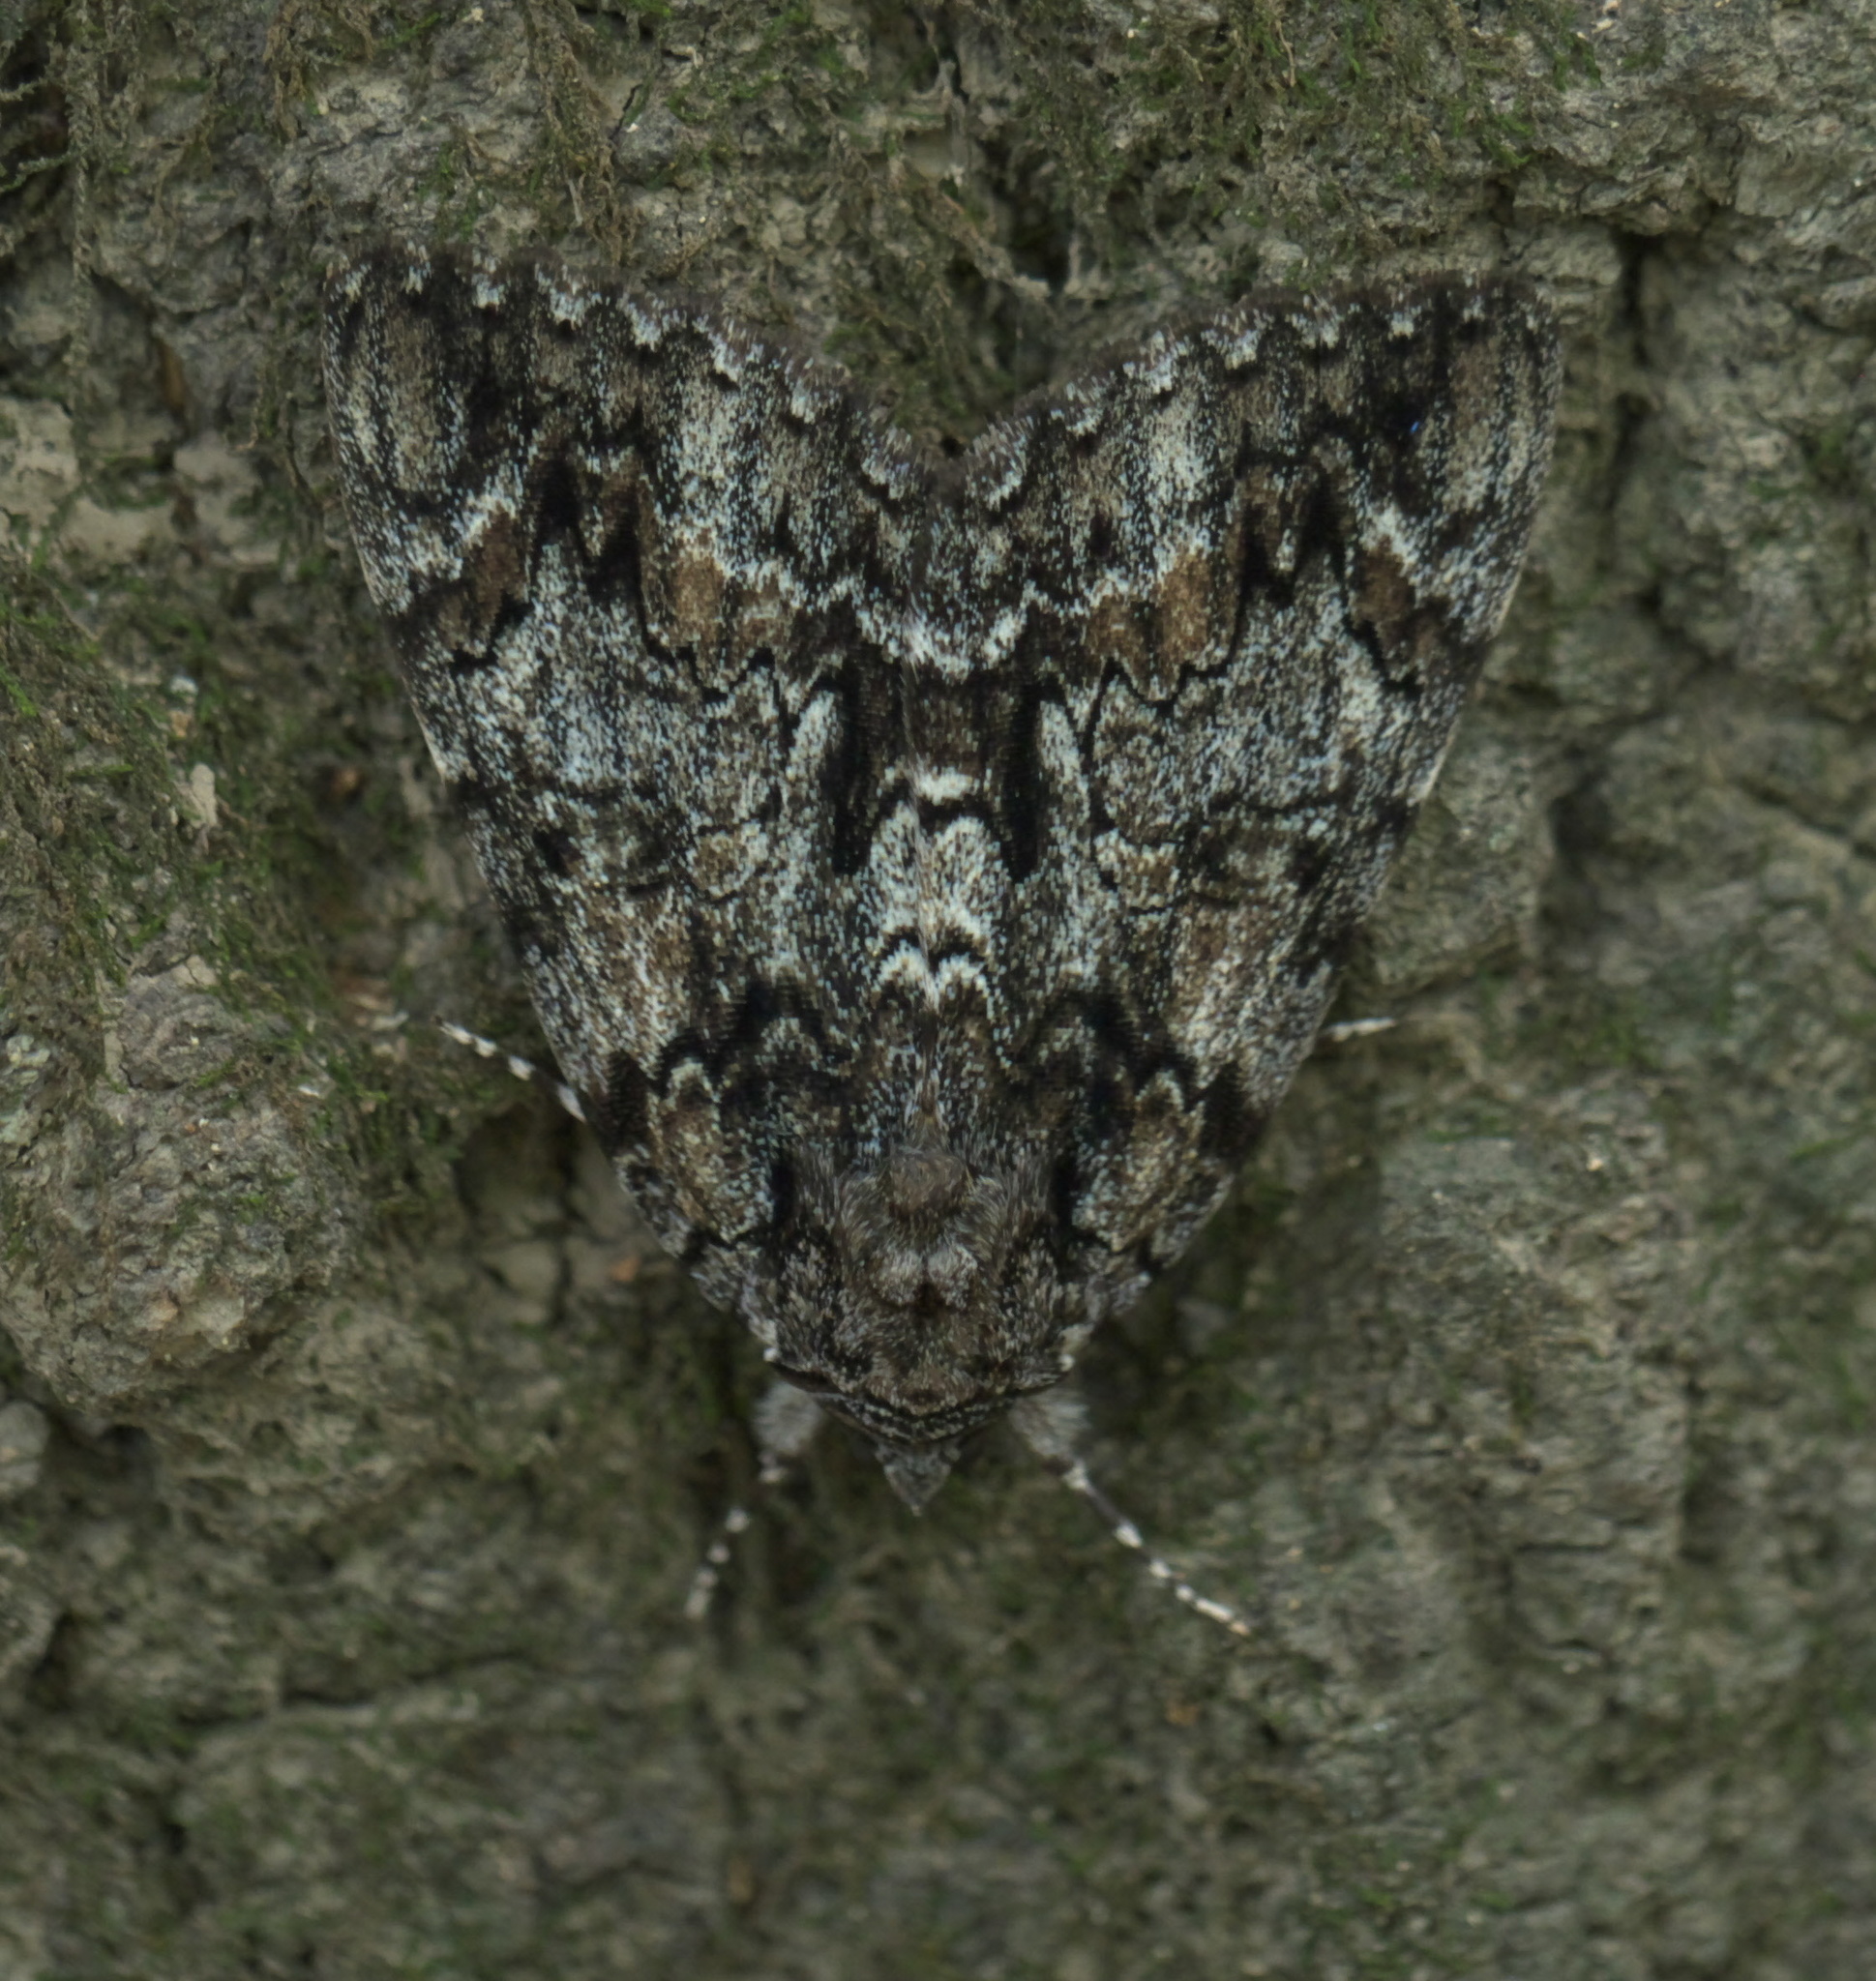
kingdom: Animalia
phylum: Arthropoda
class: Insecta
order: Lepidoptera
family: Erebidae
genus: Catocala
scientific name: Catocala lacrymosa
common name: Tearful underwing
